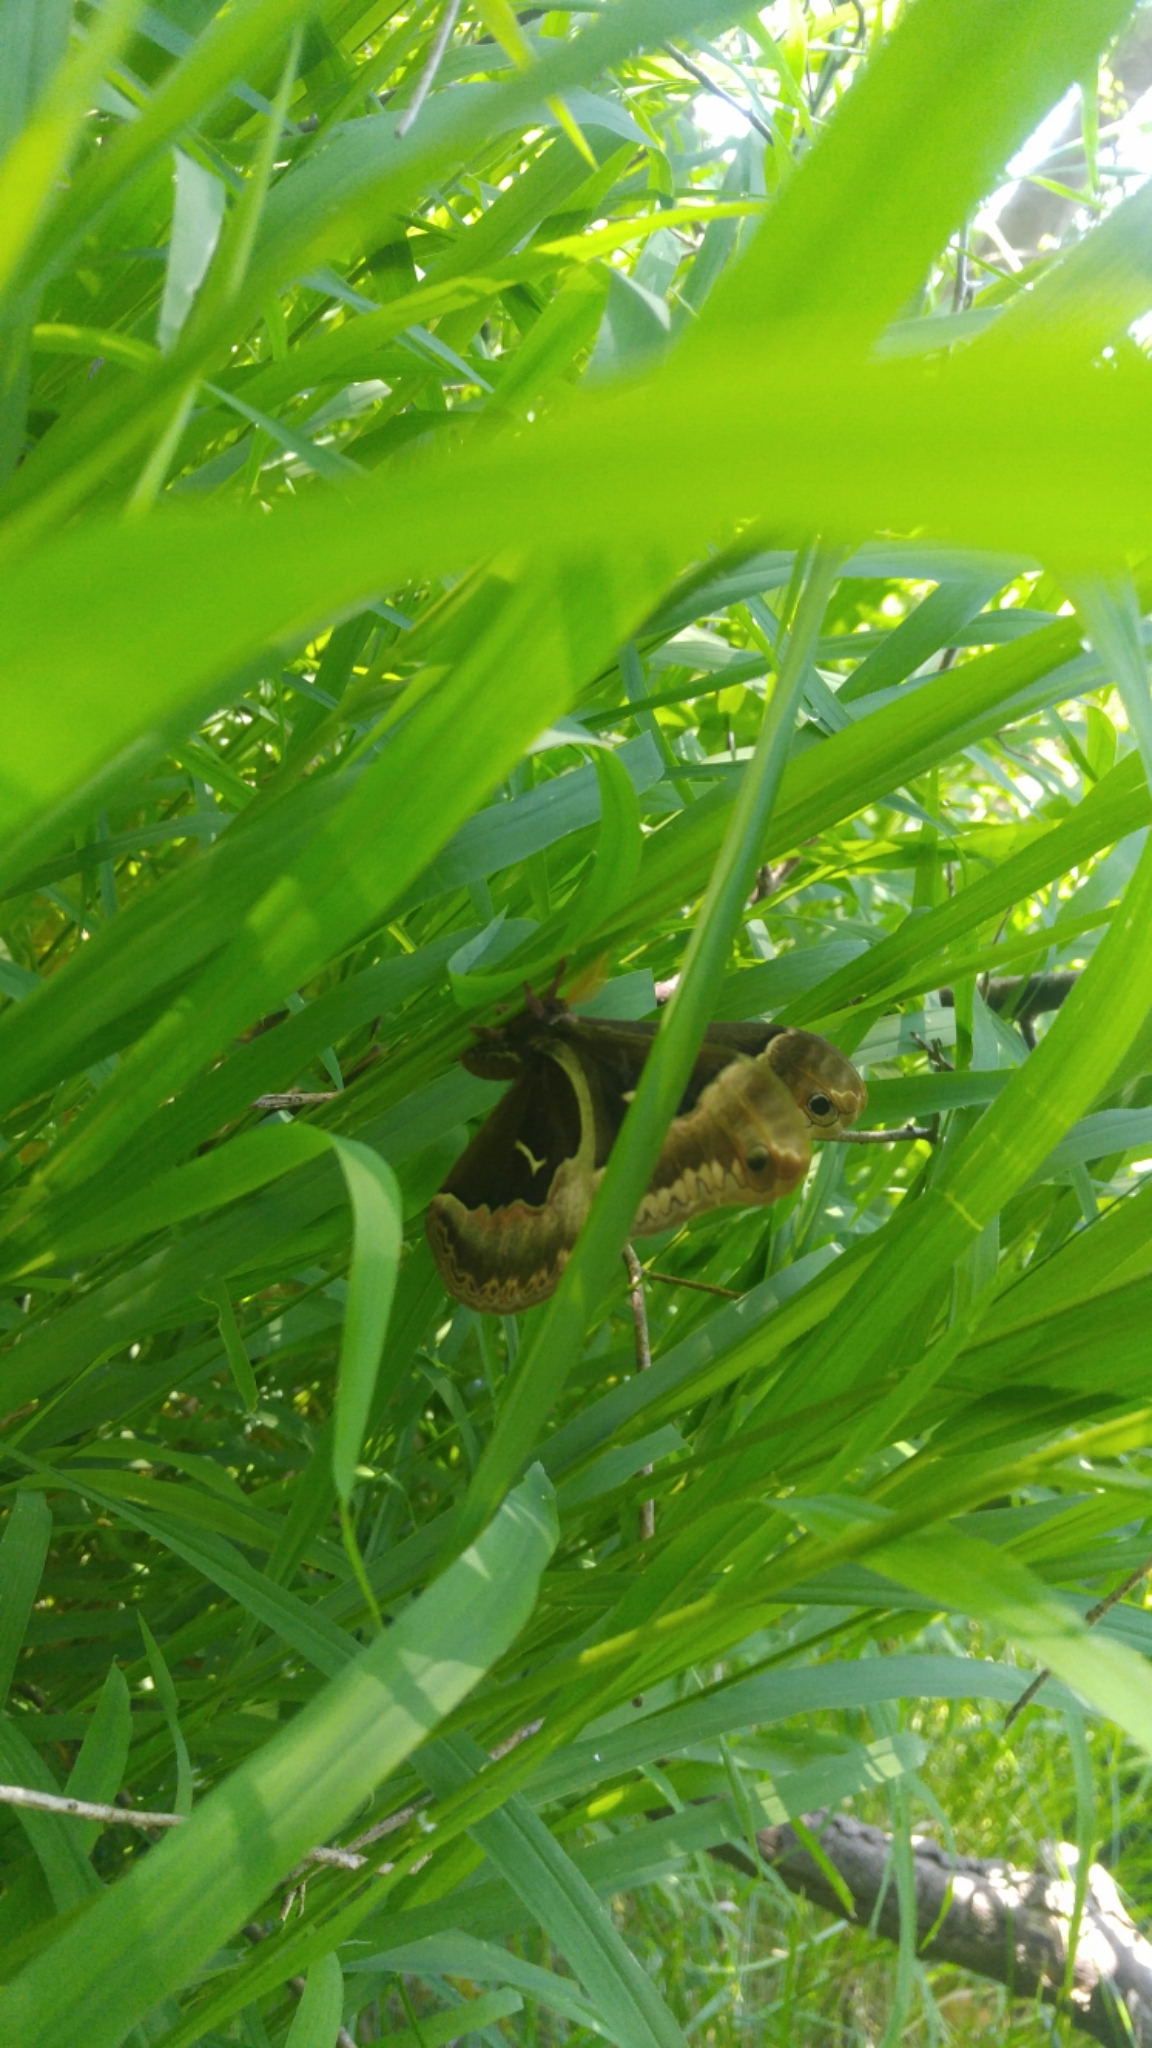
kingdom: Animalia
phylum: Arthropoda
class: Insecta
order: Lepidoptera
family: Saturniidae
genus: Callosamia
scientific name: Callosamia promethea
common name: Promethea silkmoth
